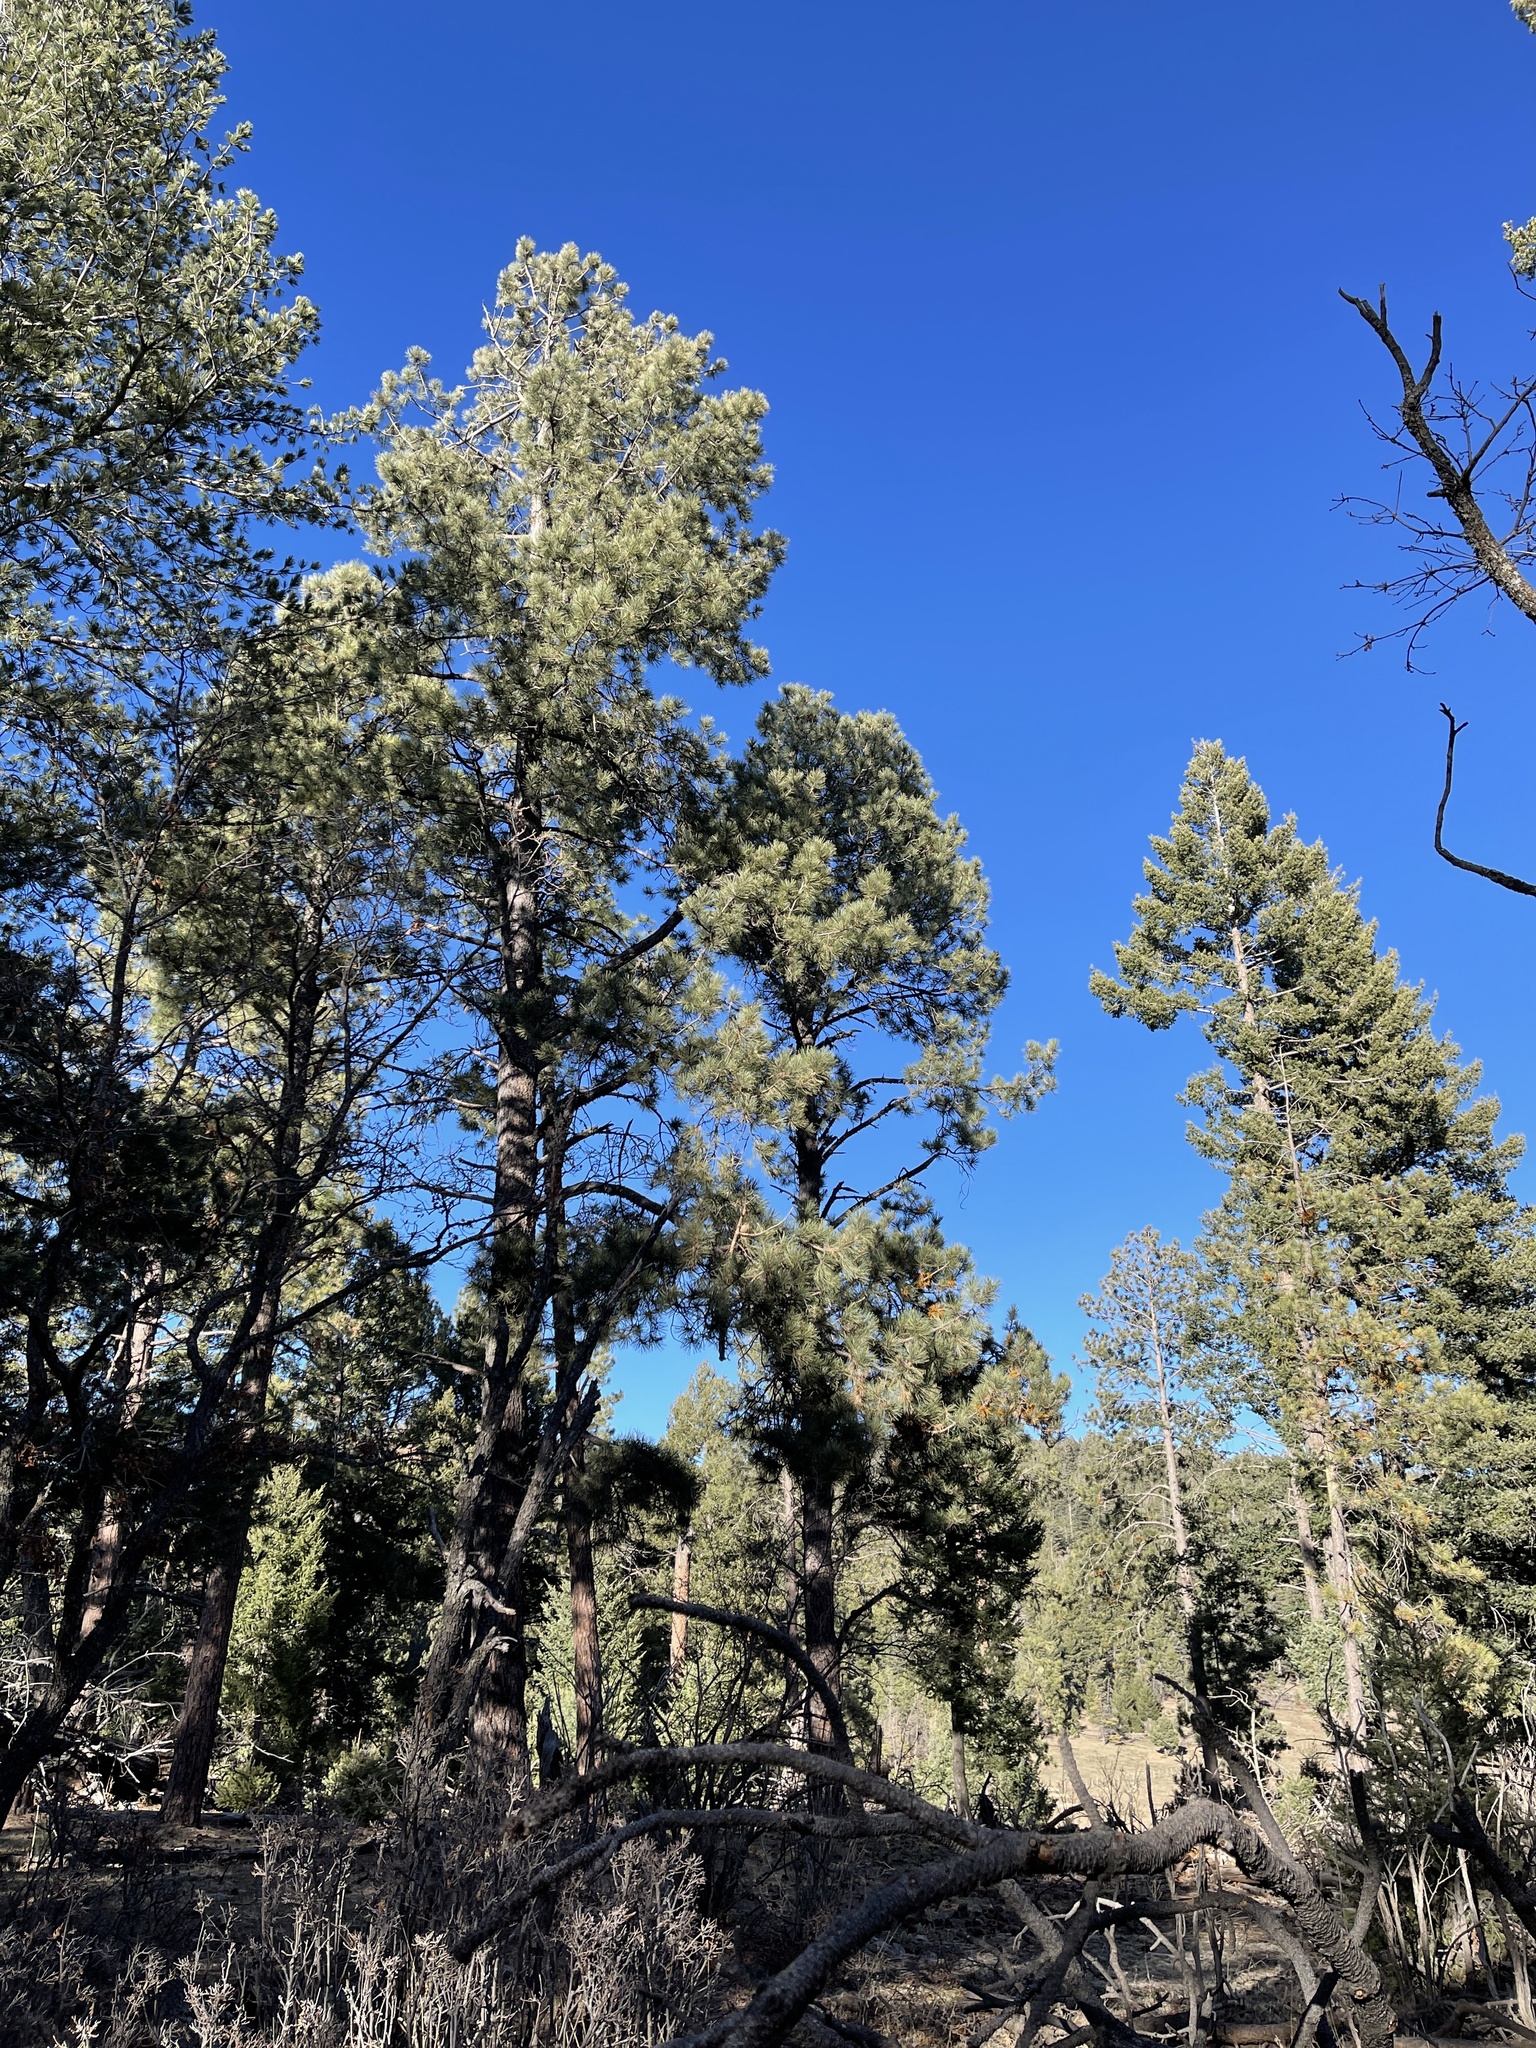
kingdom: Plantae
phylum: Tracheophyta
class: Pinopsida
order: Pinales
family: Pinaceae
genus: Pinus
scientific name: Pinus ponderosa
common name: Western yellow-pine
